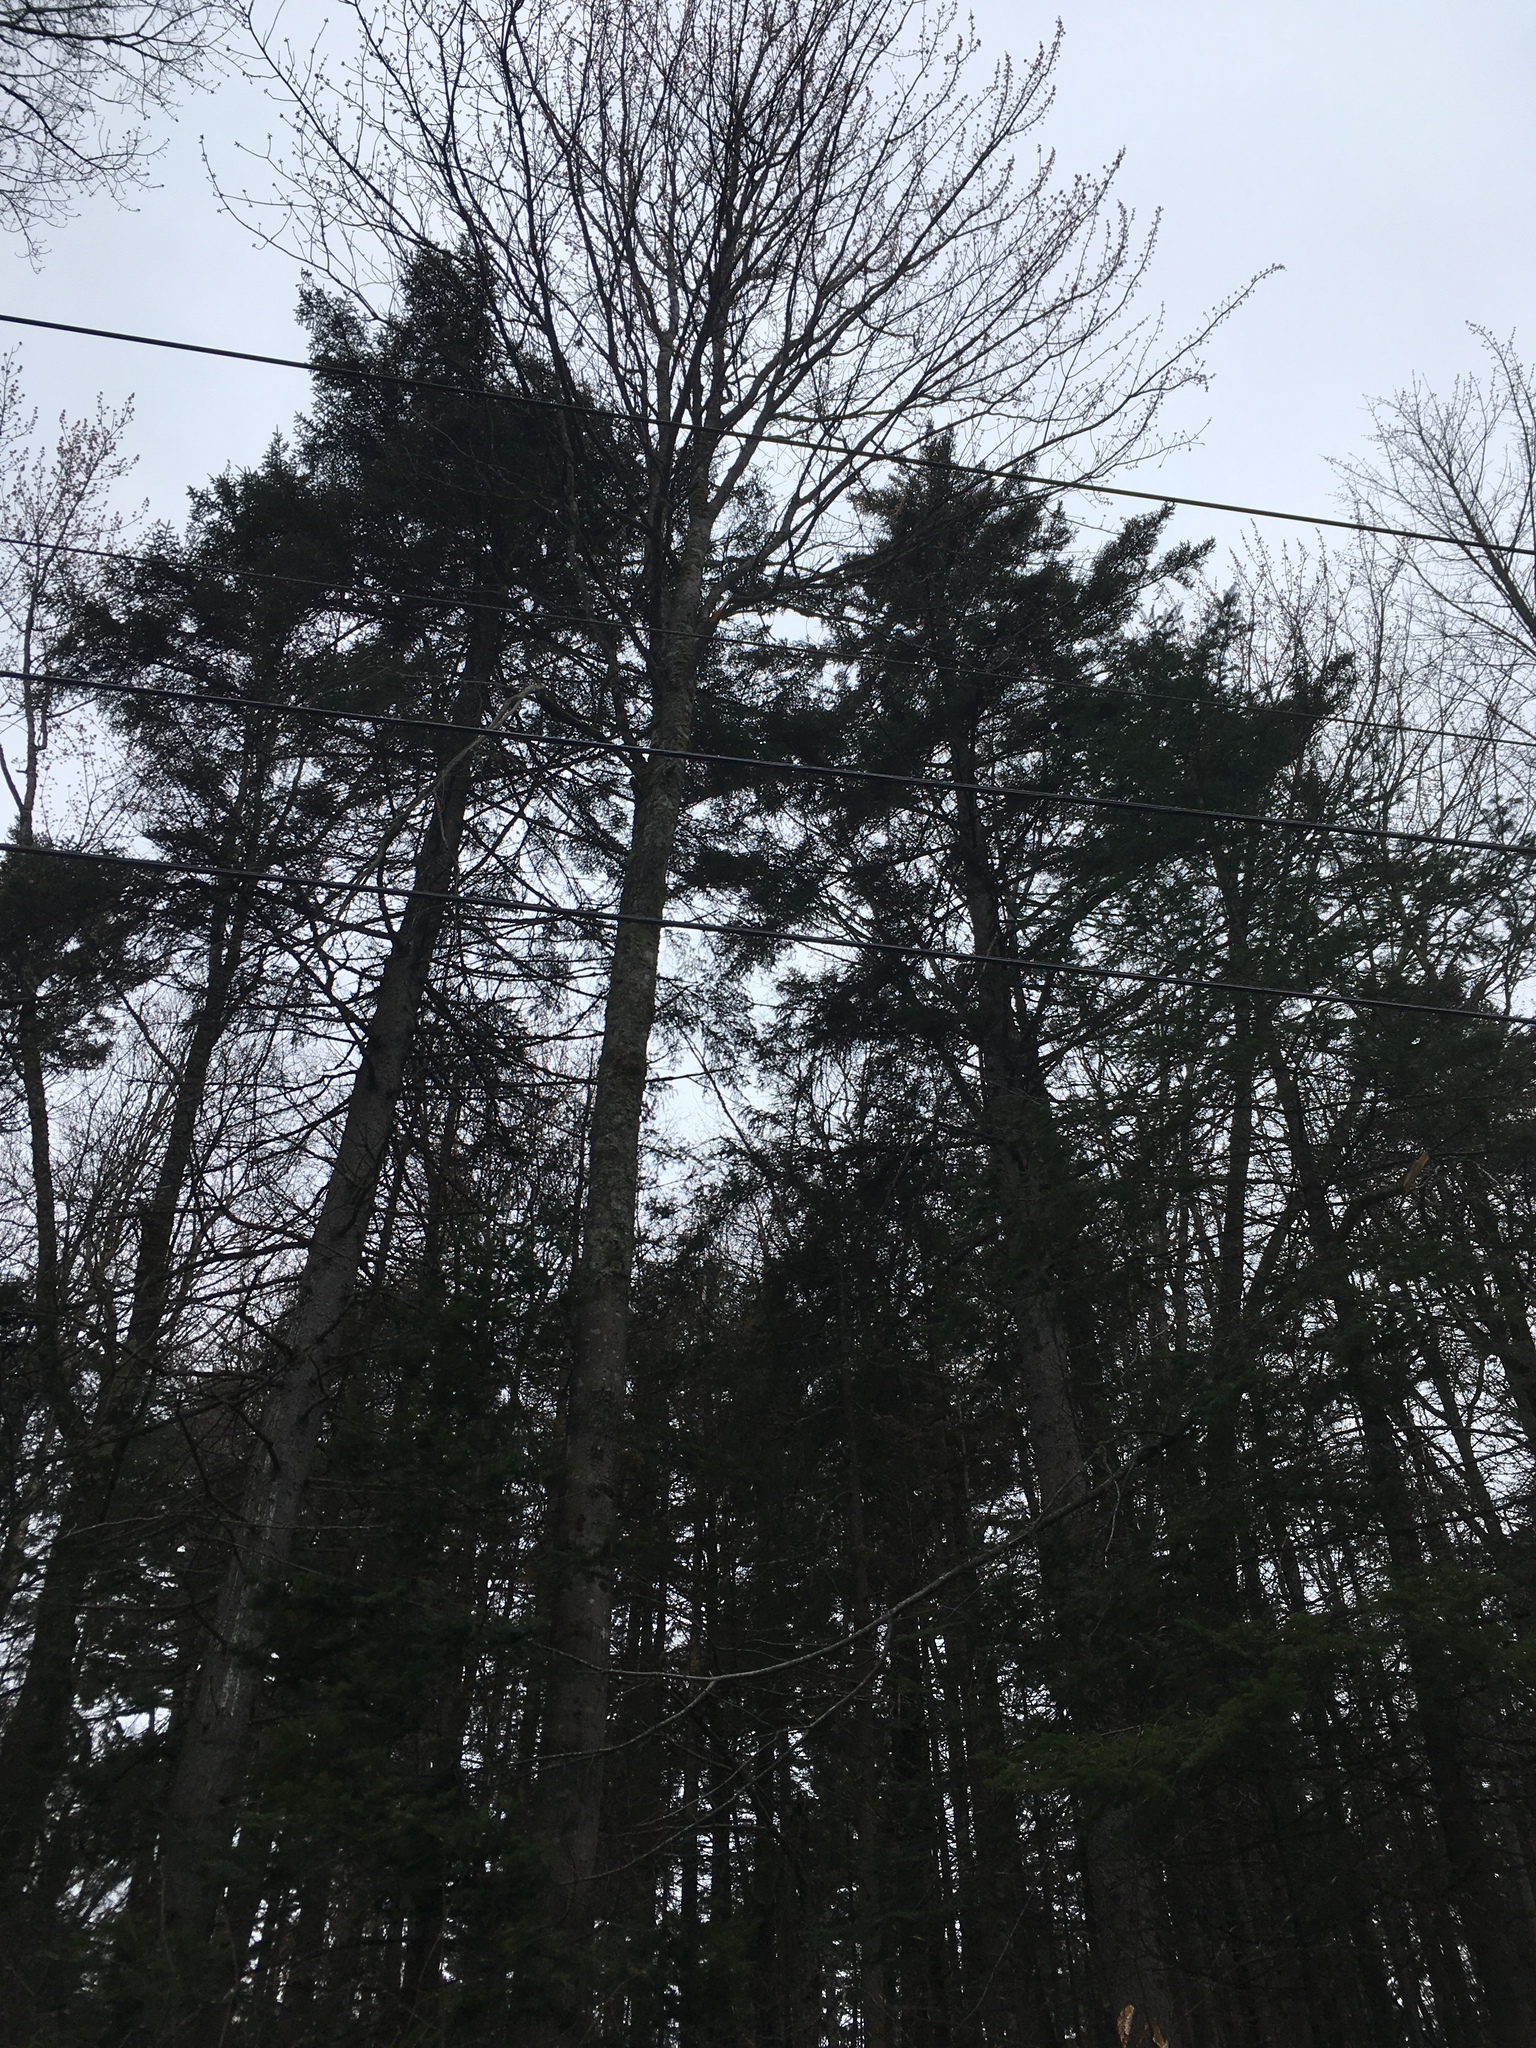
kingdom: Plantae
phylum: Tracheophyta
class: Pinopsida
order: Pinales
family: Pinaceae
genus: Picea
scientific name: Picea rubens
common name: Red spruce
